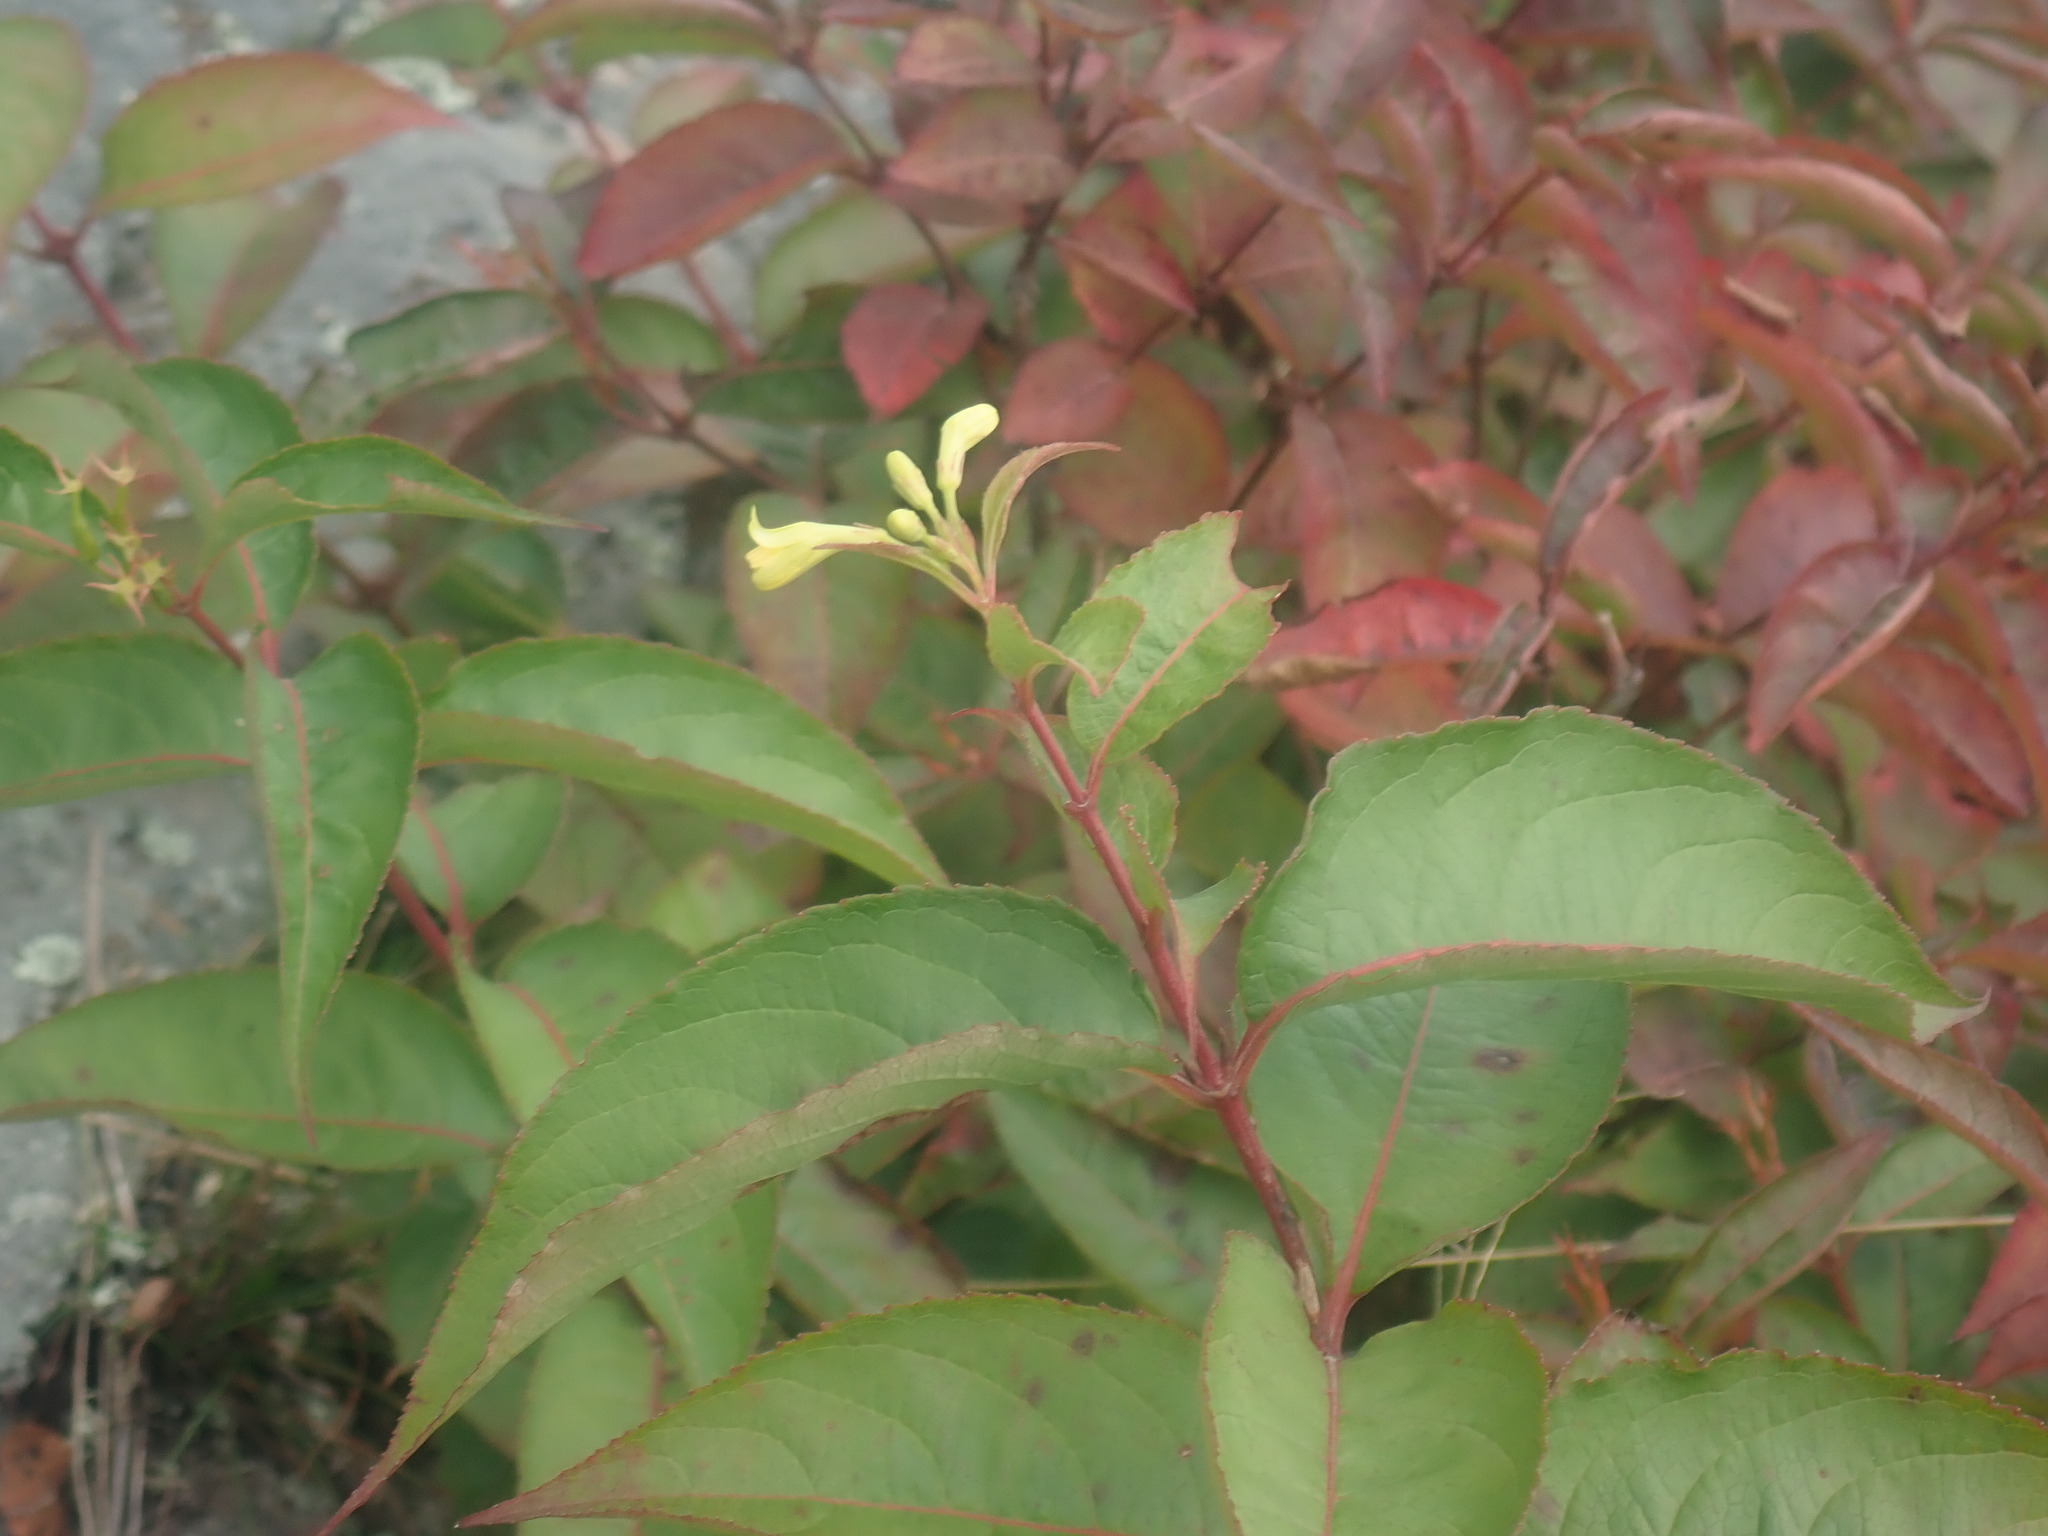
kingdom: Plantae
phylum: Tracheophyta
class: Magnoliopsida
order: Dipsacales
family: Caprifoliaceae
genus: Diervilla
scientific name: Diervilla lonicera
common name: Bush-honeysuckle
